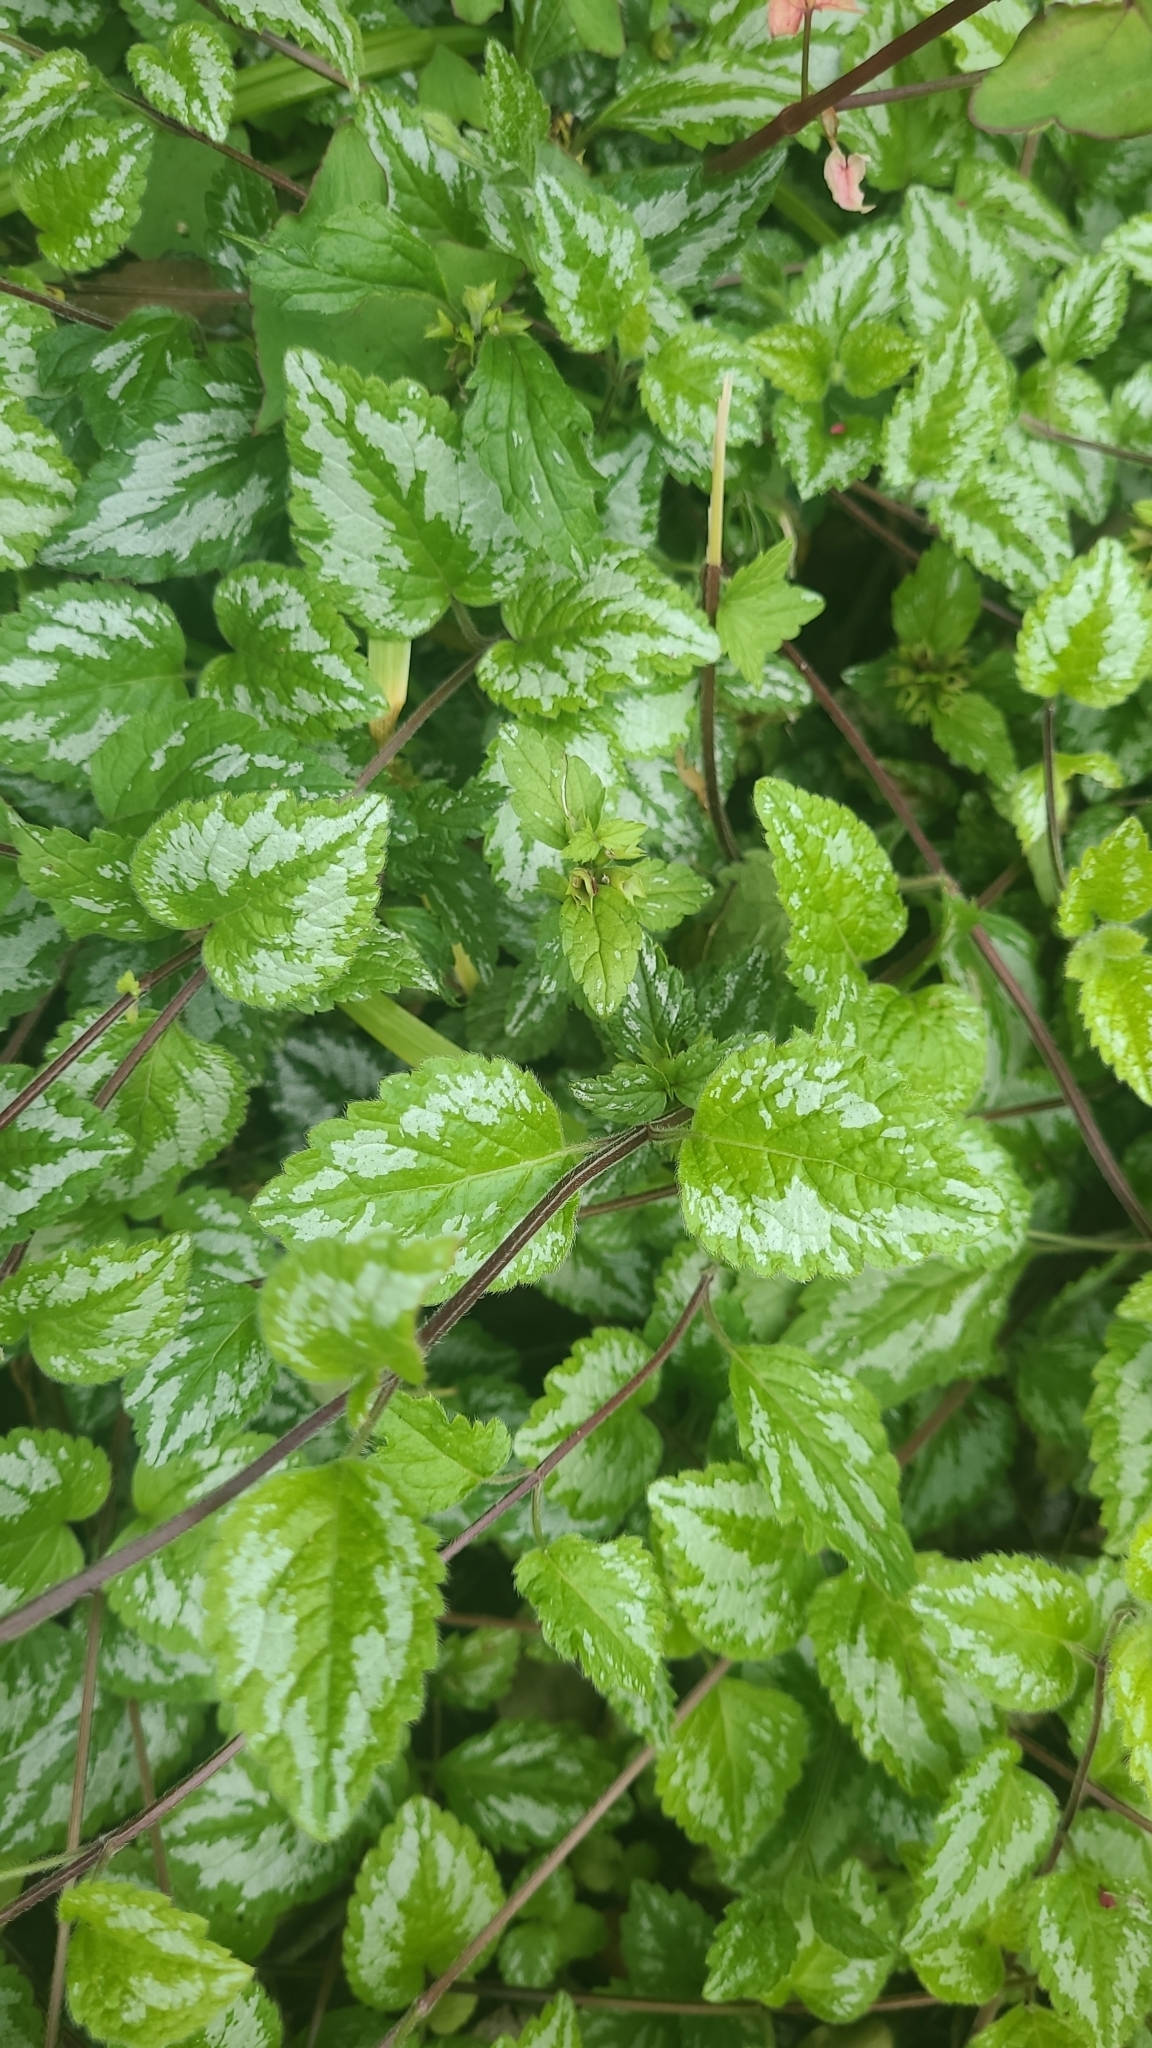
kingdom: Plantae
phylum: Tracheophyta
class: Magnoliopsida
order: Lamiales
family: Lamiaceae
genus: Lamium
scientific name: Lamium galeobdolon
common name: Yellow archangel
